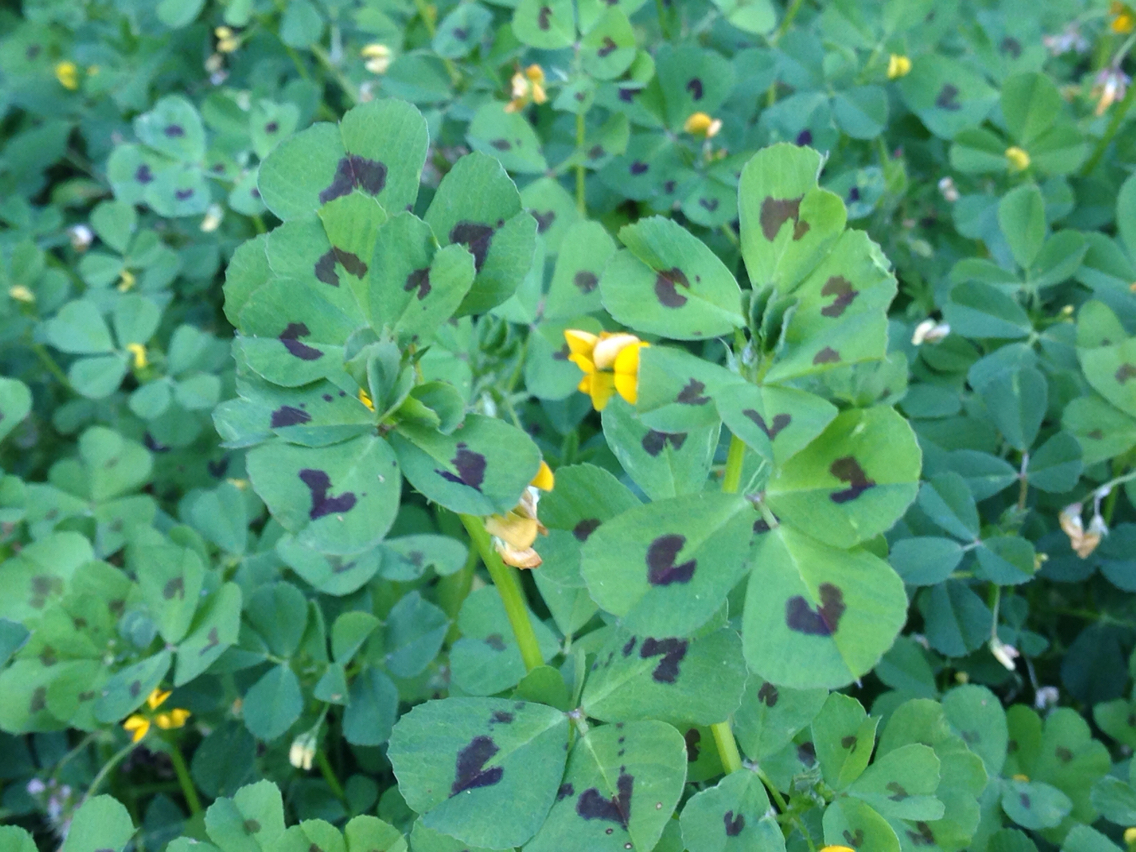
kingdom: Plantae
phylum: Tracheophyta
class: Magnoliopsida
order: Fabales
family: Fabaceae
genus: Medicago
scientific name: Medicago arabica
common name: Spotted medick
